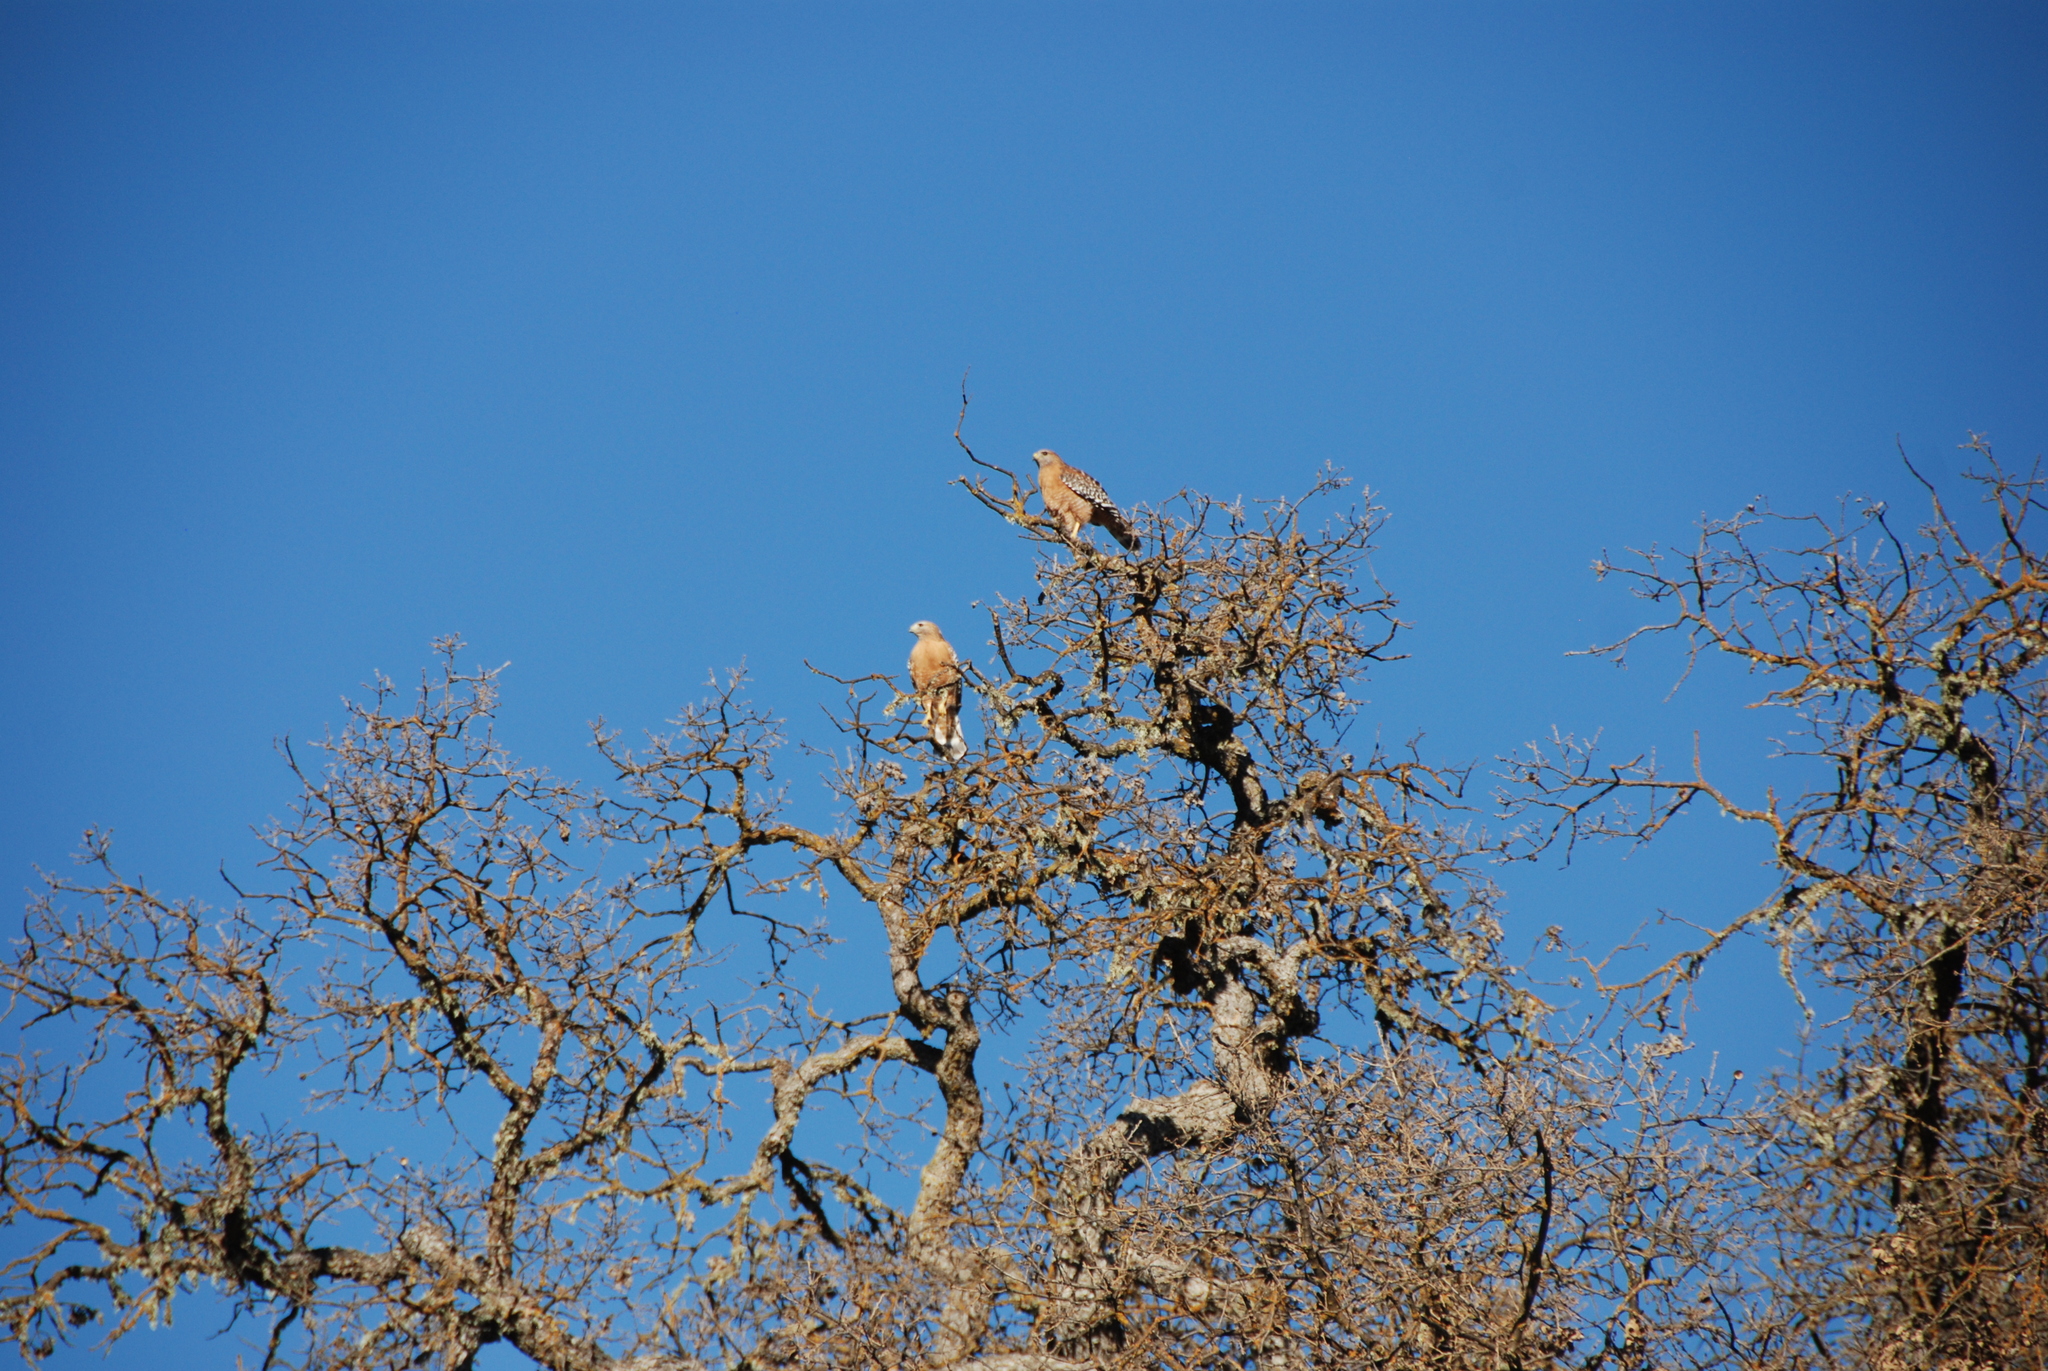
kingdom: Animalia
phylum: Chordata
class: Aves
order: Accipitriformes
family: Accipitridae
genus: Buteo
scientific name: Buteo lineatus
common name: Red-shouldered hawk
